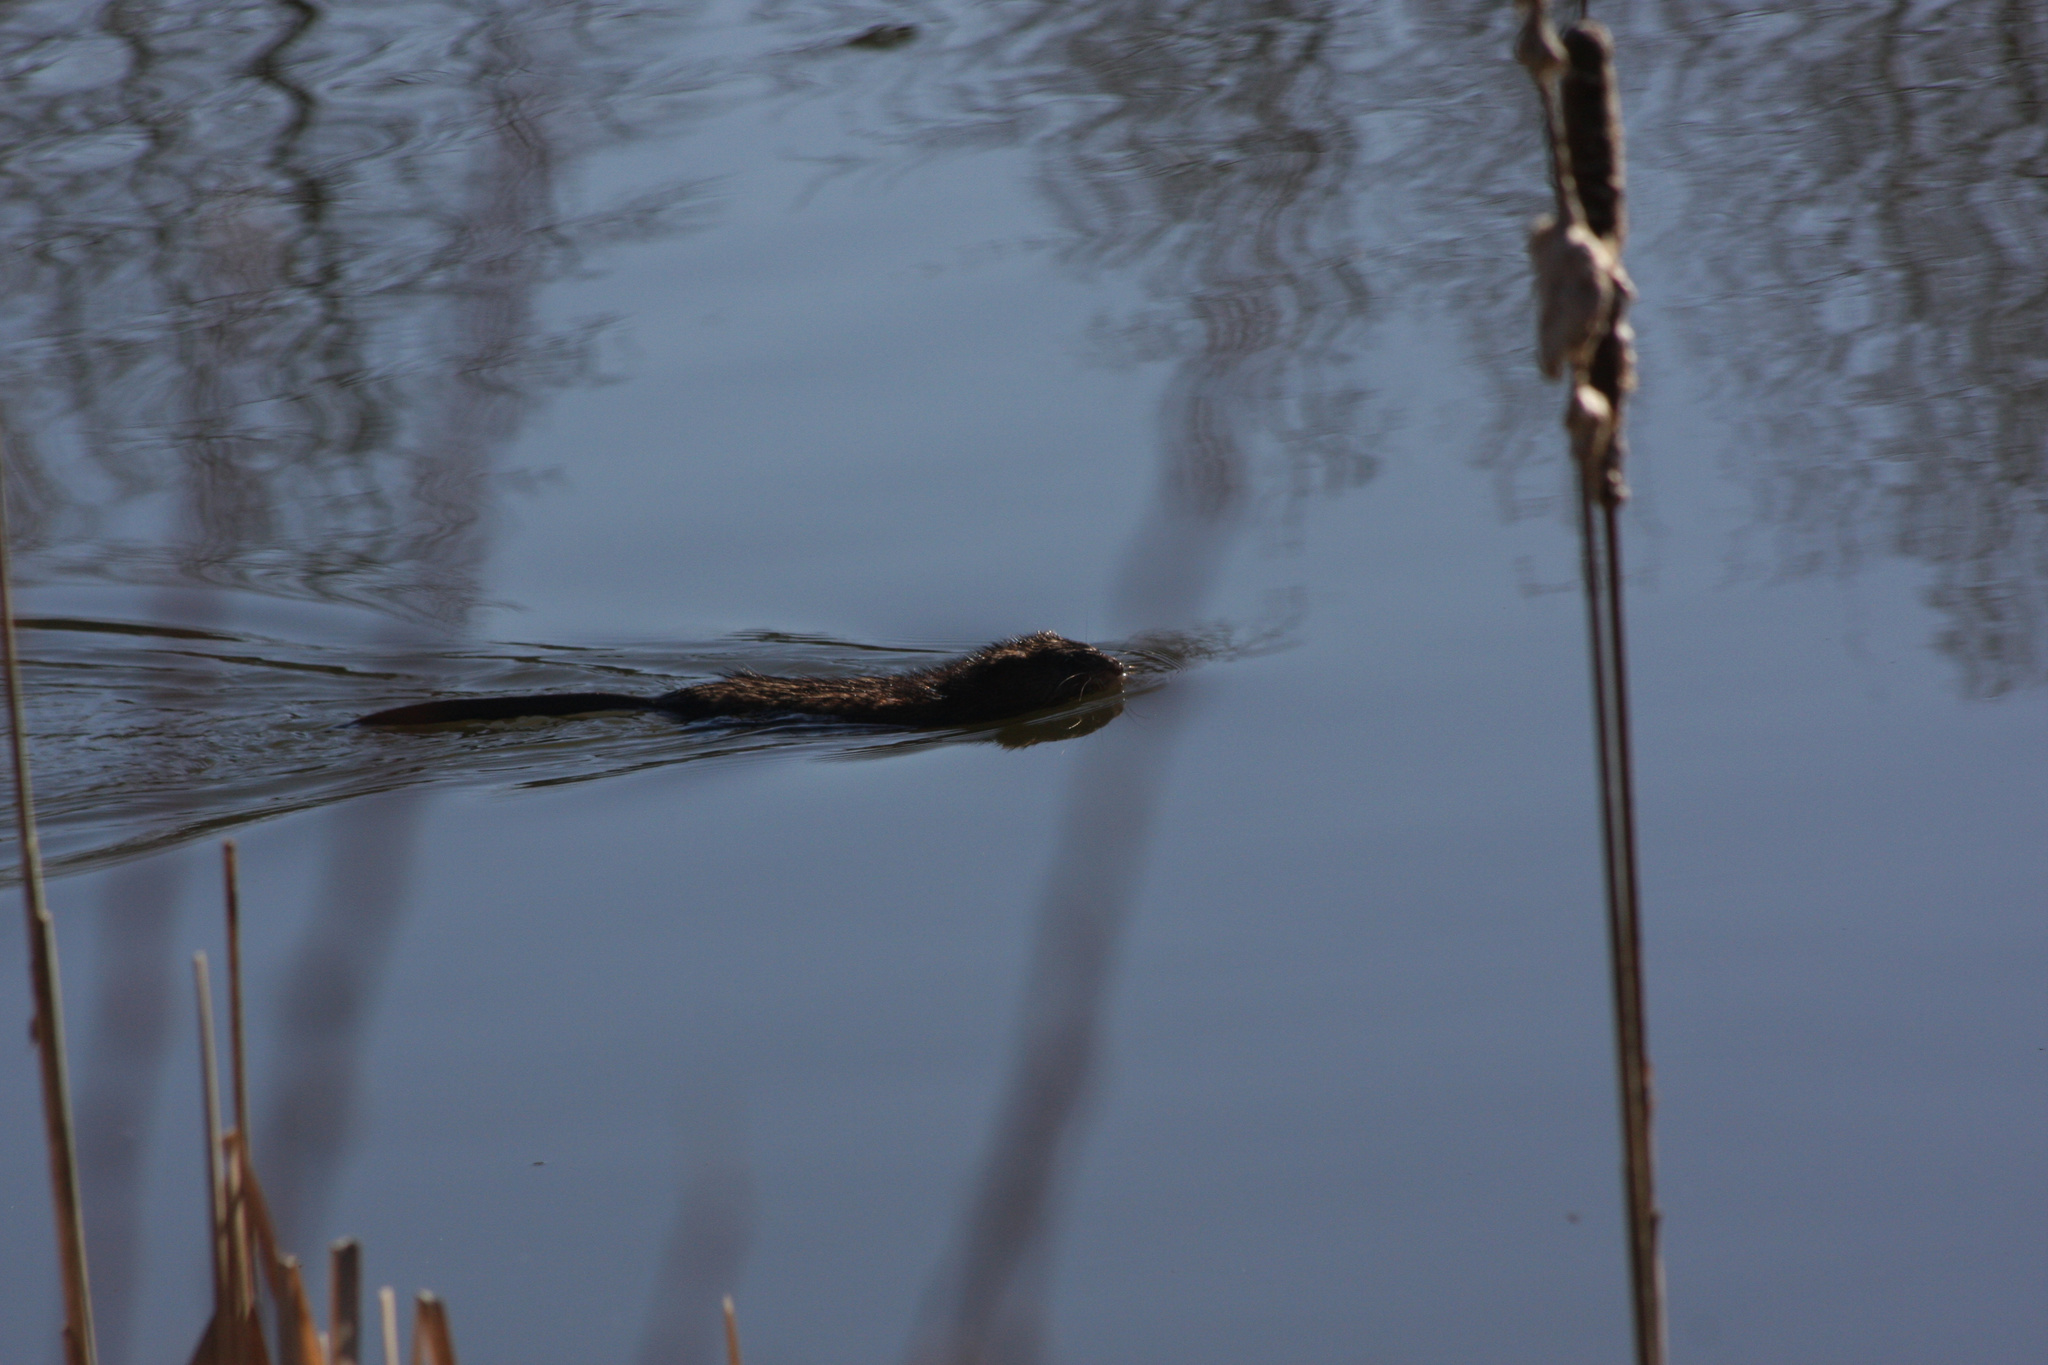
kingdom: Animalia
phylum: Chordata
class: Mammalia
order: Rodentia
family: Cricetidae
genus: Ondatra
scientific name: Ondatra zibethicus
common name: Muskrat
